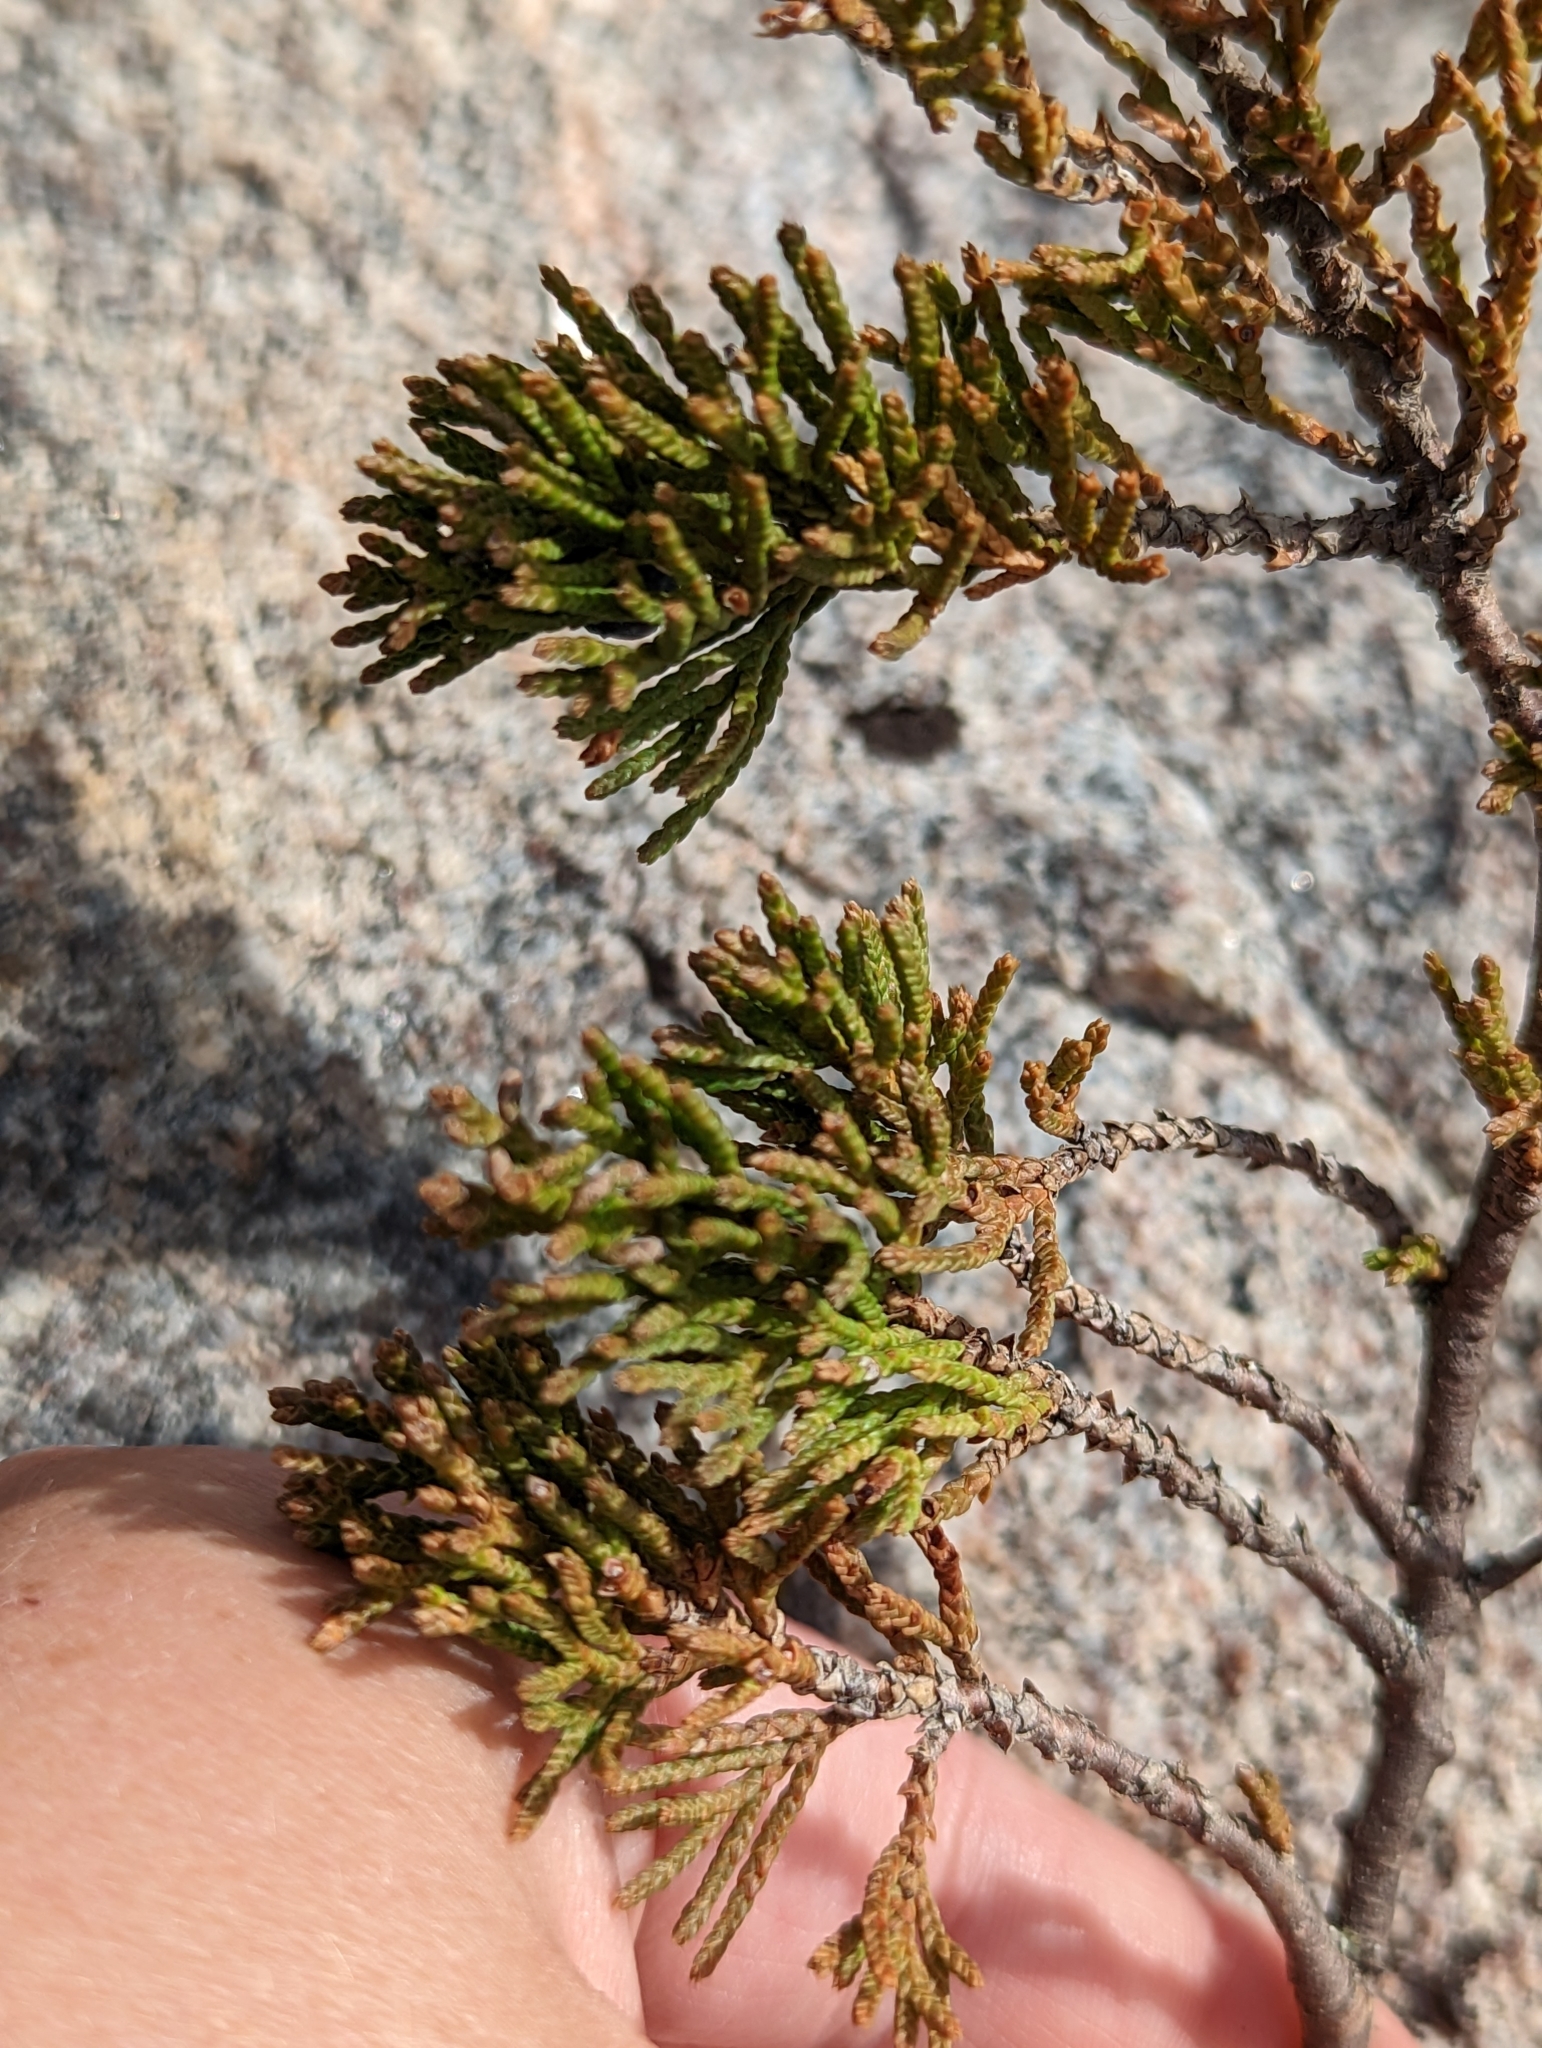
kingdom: Plantae
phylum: Tracheophyta
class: Pinopsida
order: Pinales
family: Cupressaceae
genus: Juniperus
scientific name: Juniperus horizontalis
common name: Creeping juniper
